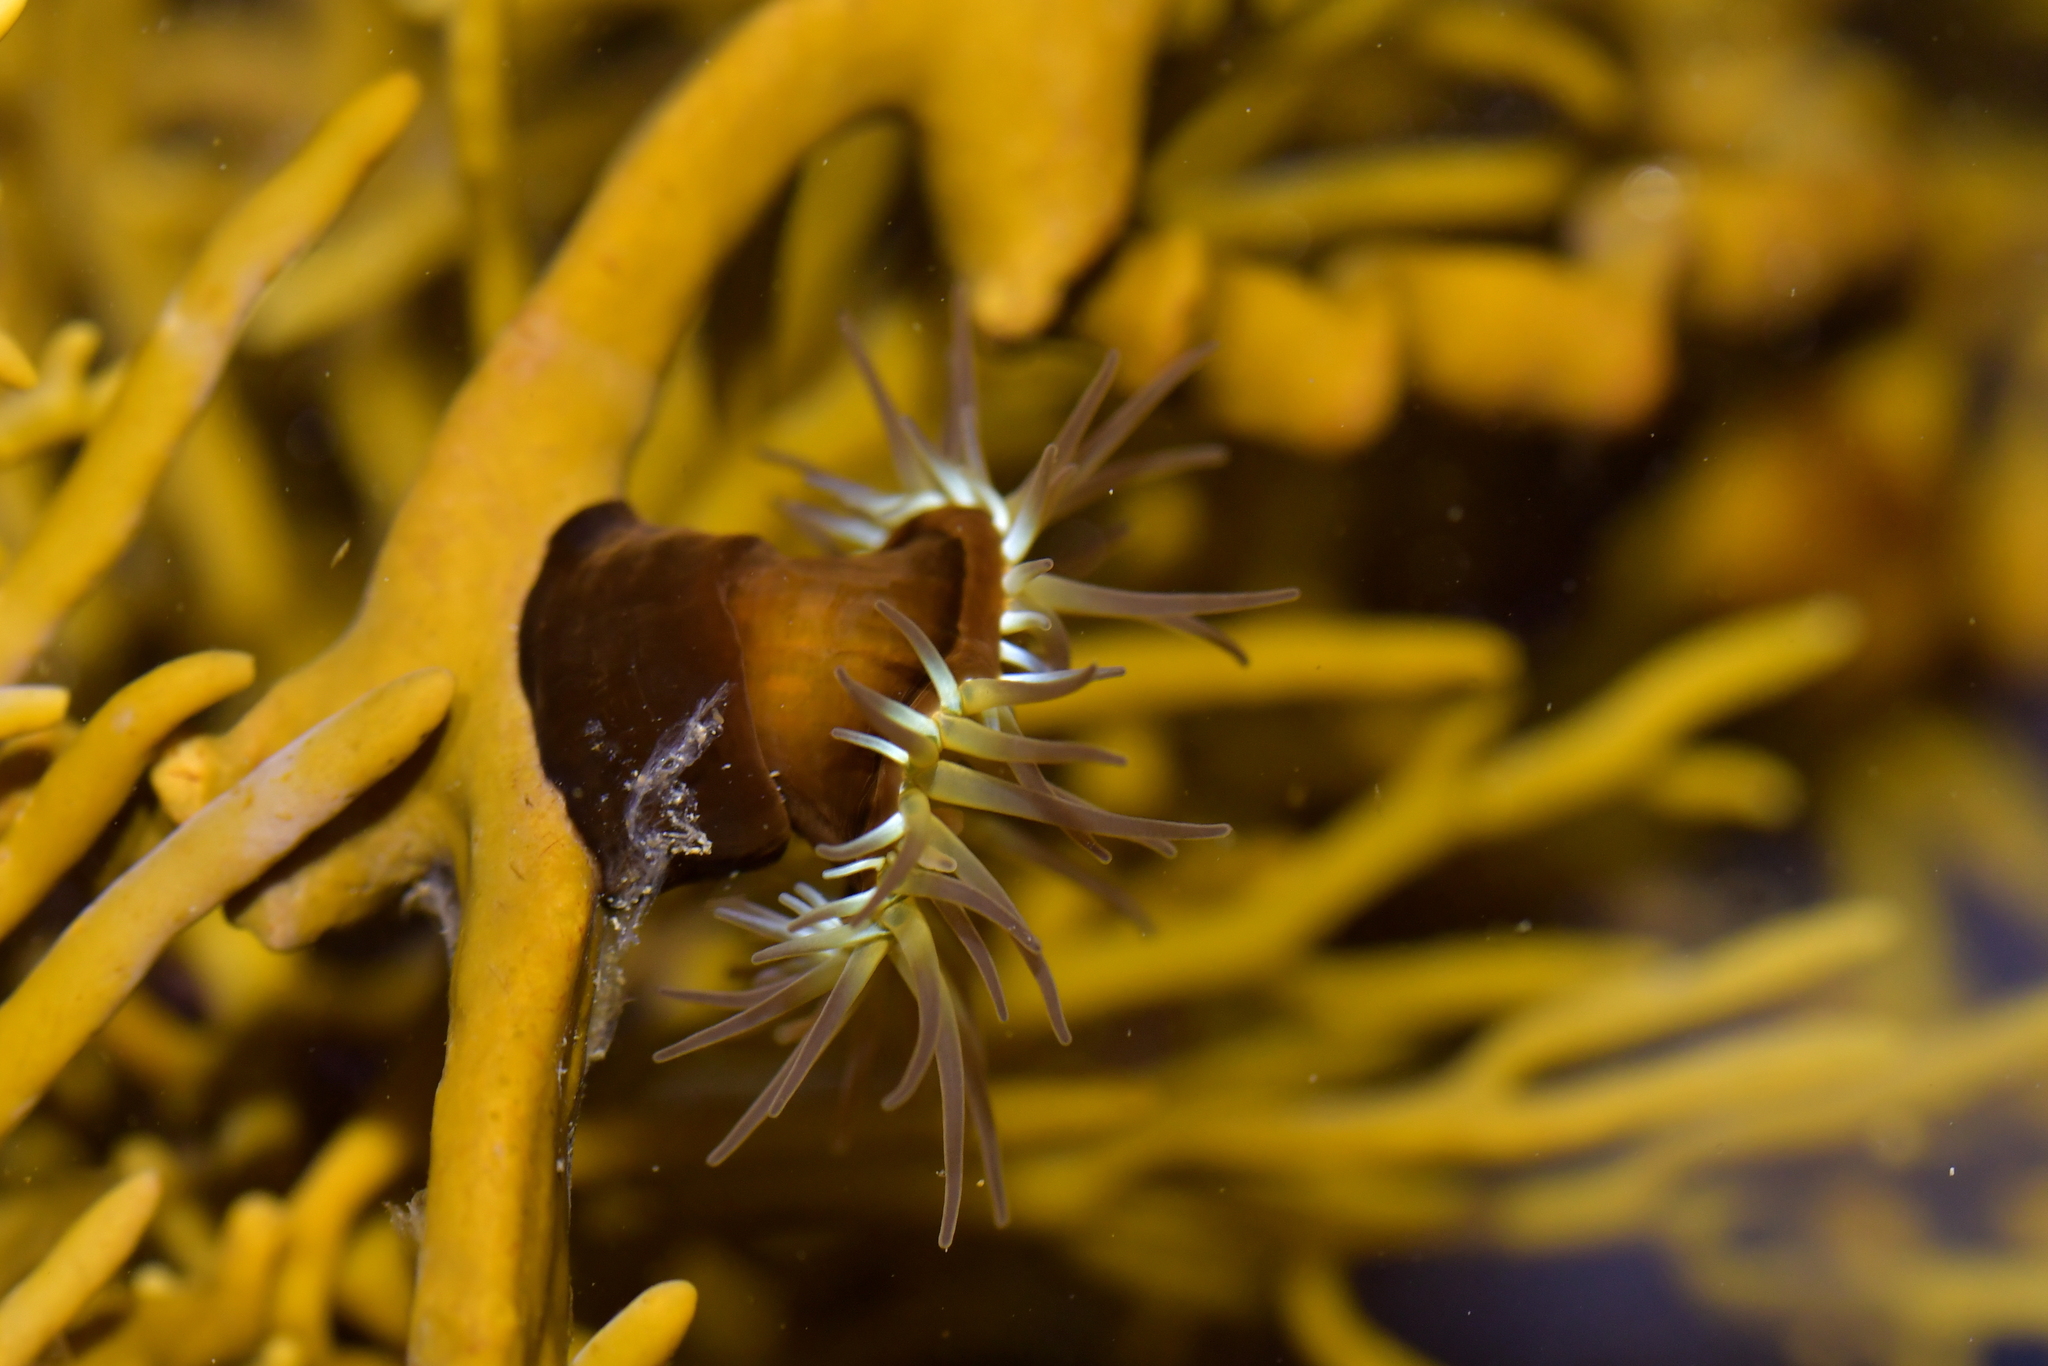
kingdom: Animalia
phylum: Cnidaria
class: Anthozoa
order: Actiniaria
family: Hormathiidae
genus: Handactis
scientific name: Handactis nutrix
